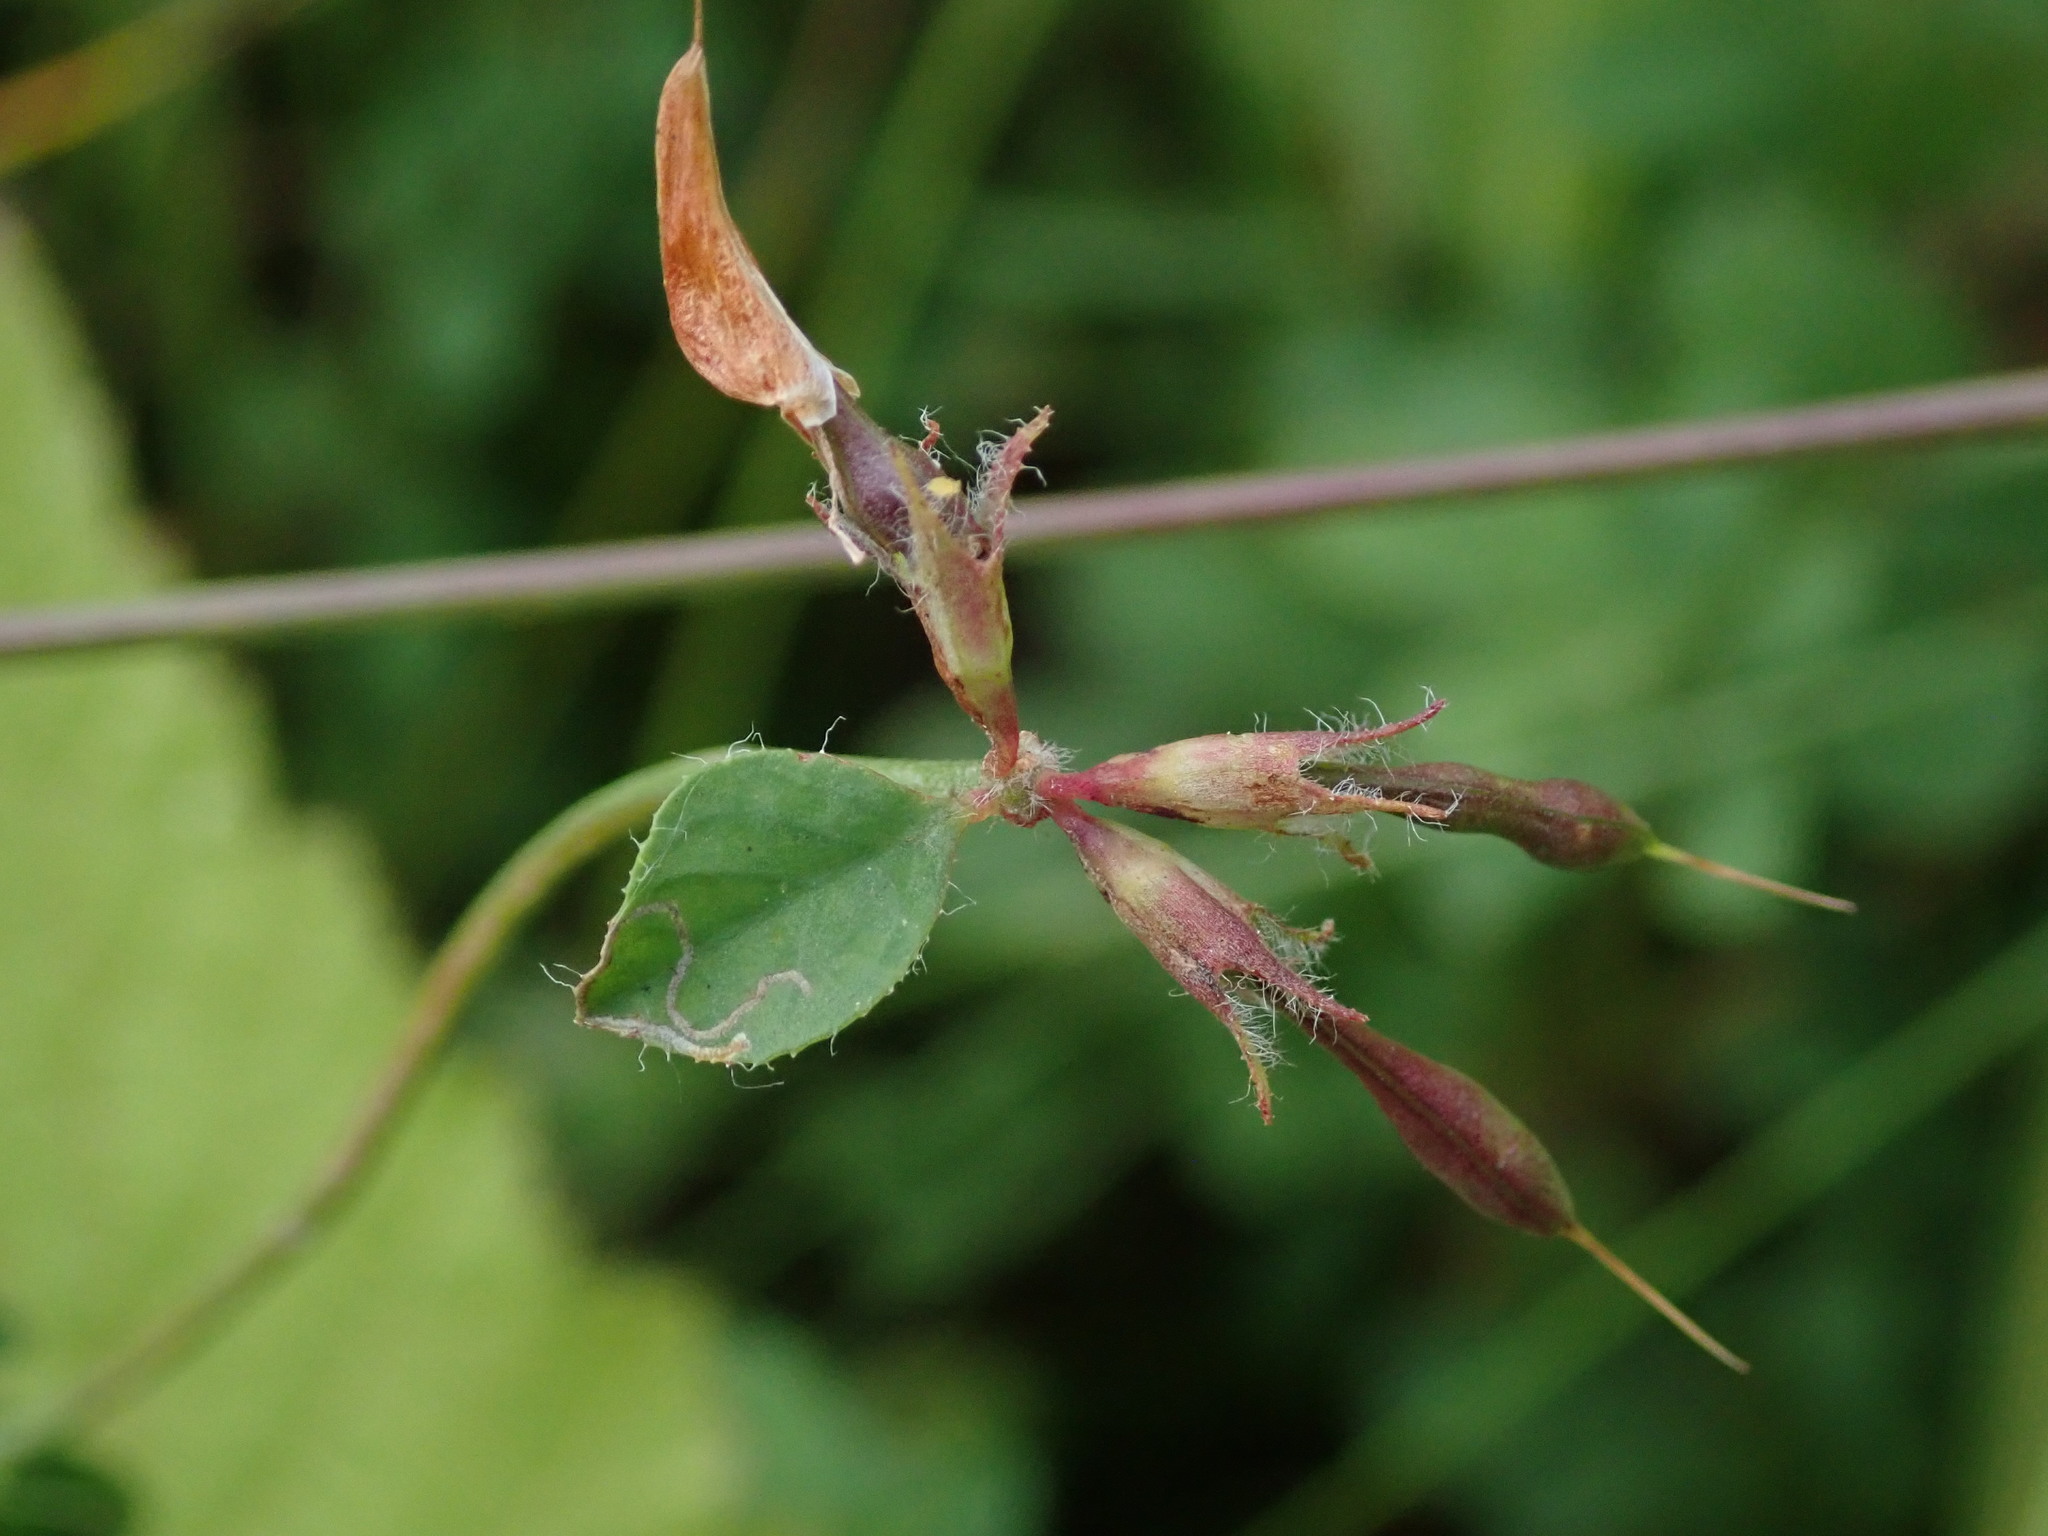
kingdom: Plantae
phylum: Tracheophyta
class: Magnoliopsida
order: Fabales
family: Fabaceae
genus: Lotus
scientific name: Lotus pedunculatus
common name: Greater birdsfoot-trefoil
